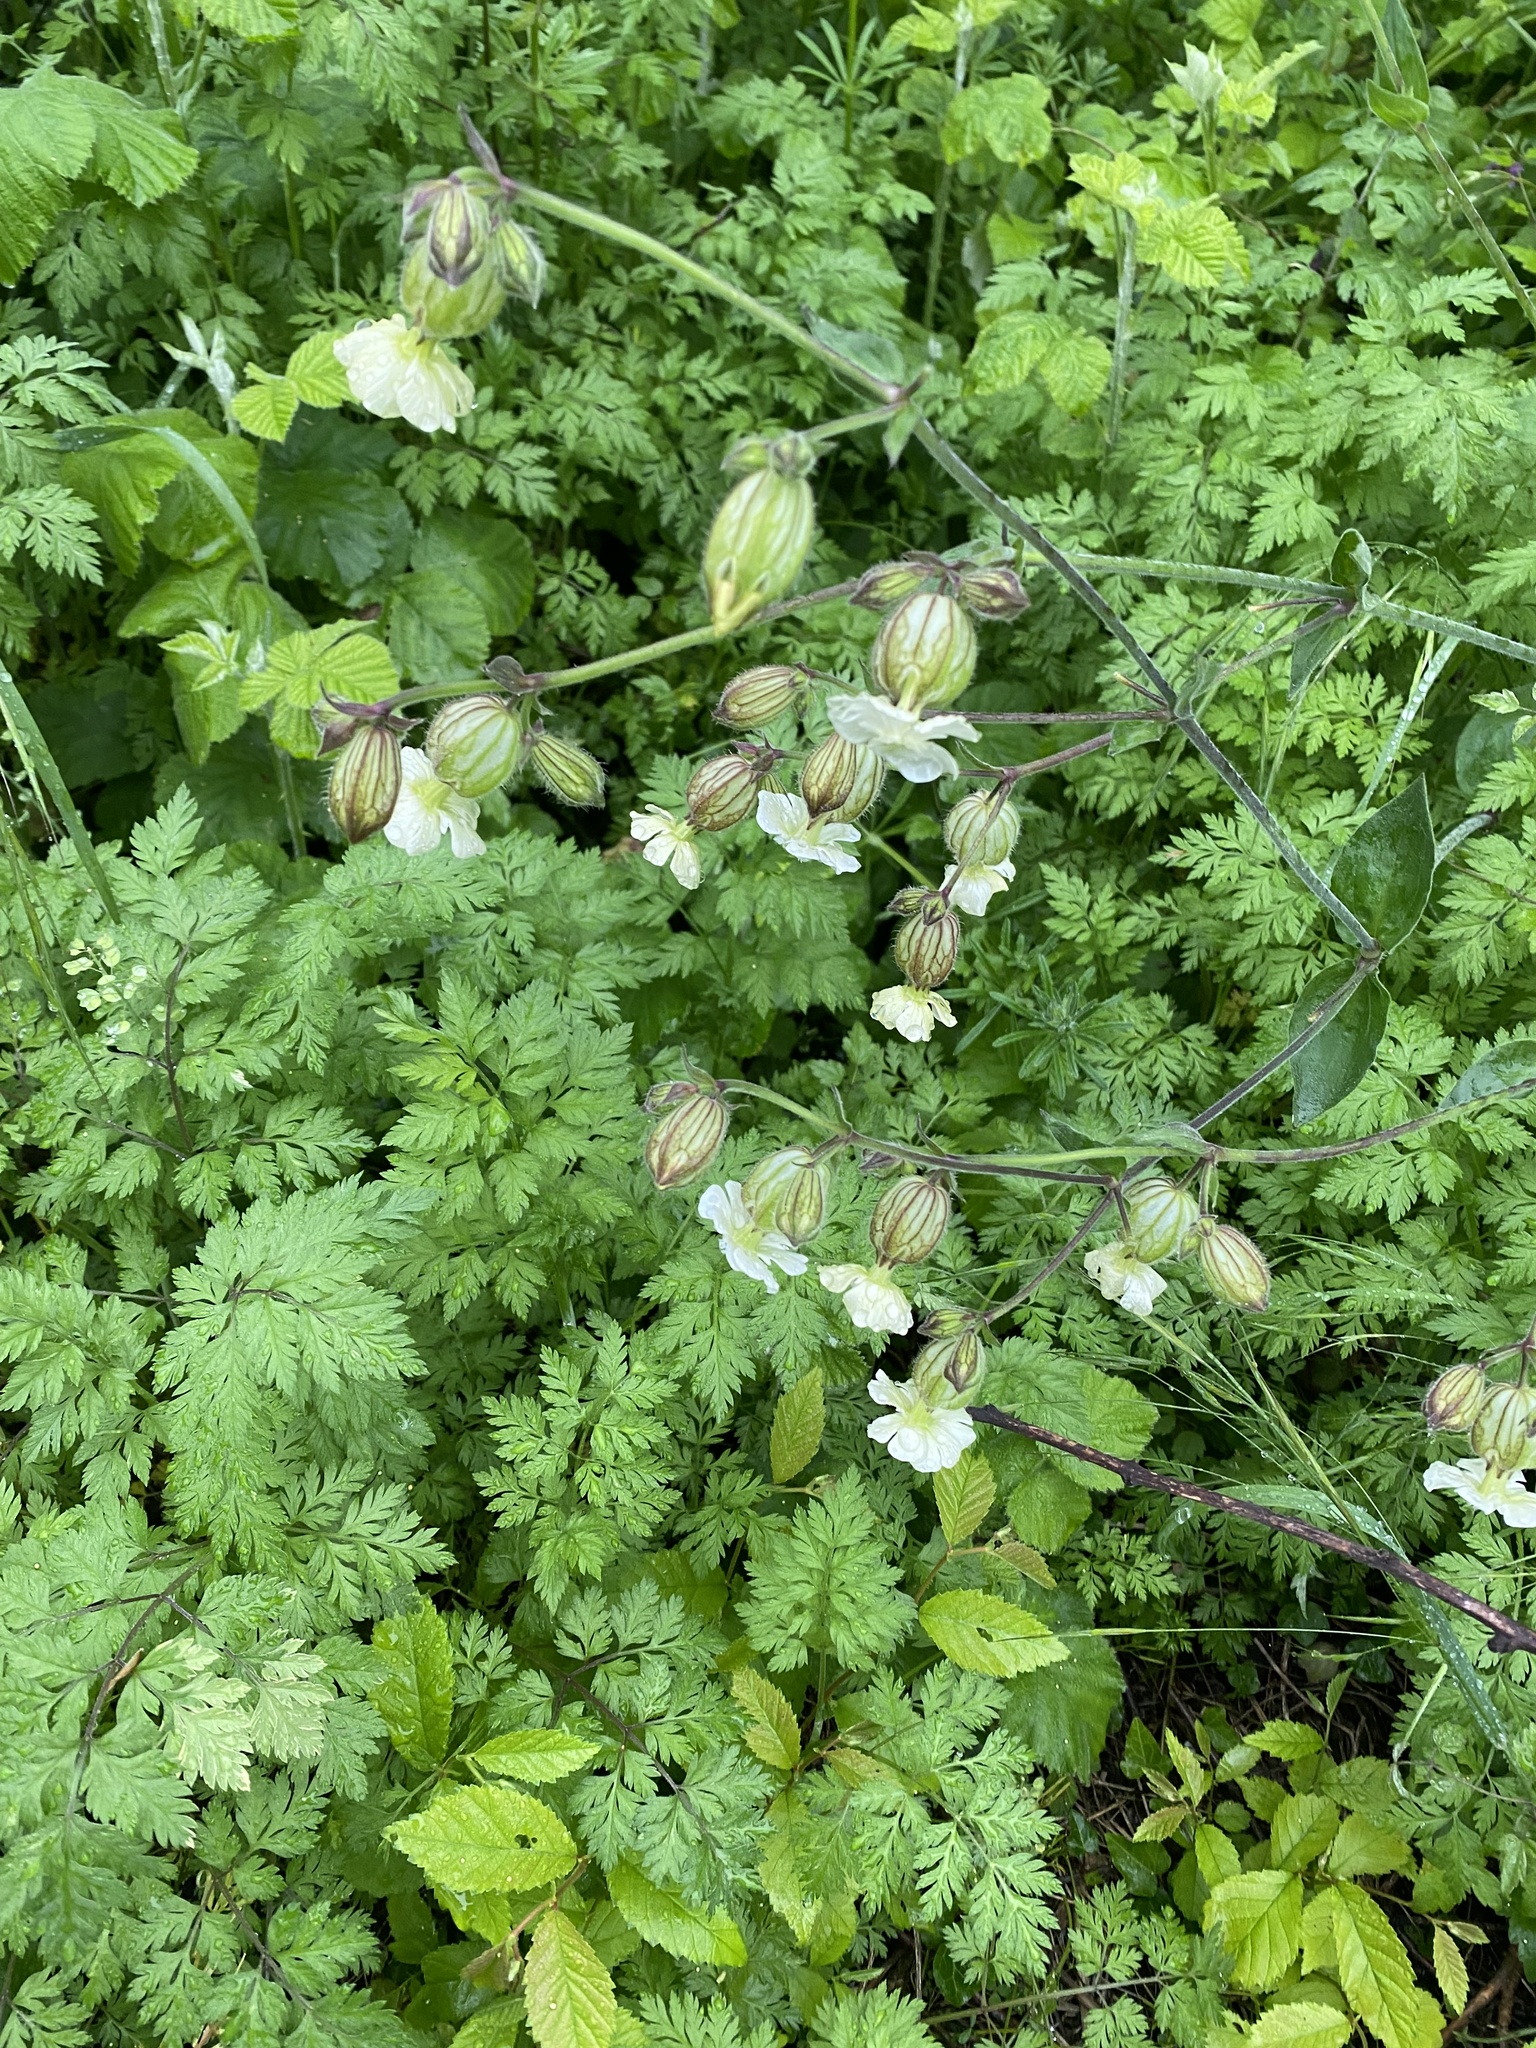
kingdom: Plantae
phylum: Tracheophyta
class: Magnoliopsida
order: Caryophyllales
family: Caryophyllaceae
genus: Silene
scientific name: Silene latifolia
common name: White campion
